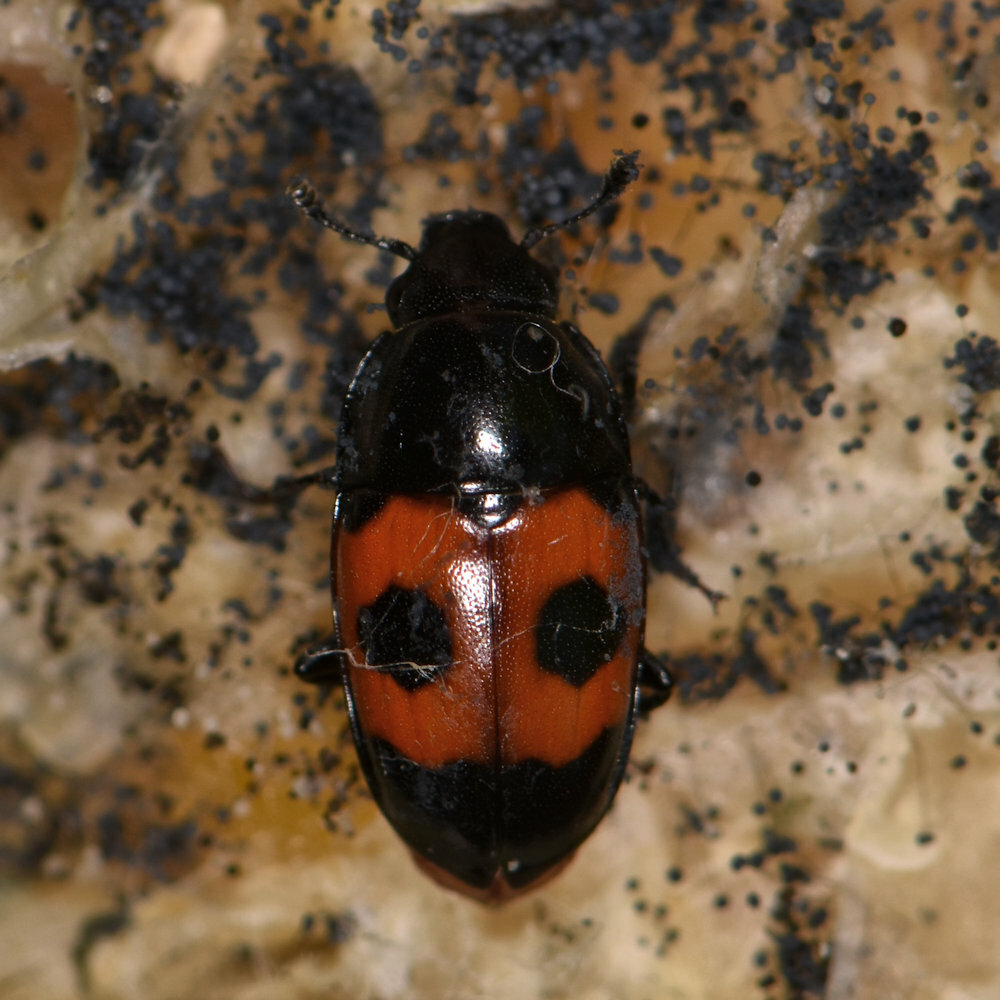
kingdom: Animalia
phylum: Arthropoda
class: Insecta
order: Coleoptera
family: Nitidulidae
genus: Glischrochilus
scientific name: Glischrochilus sanguinolentus
